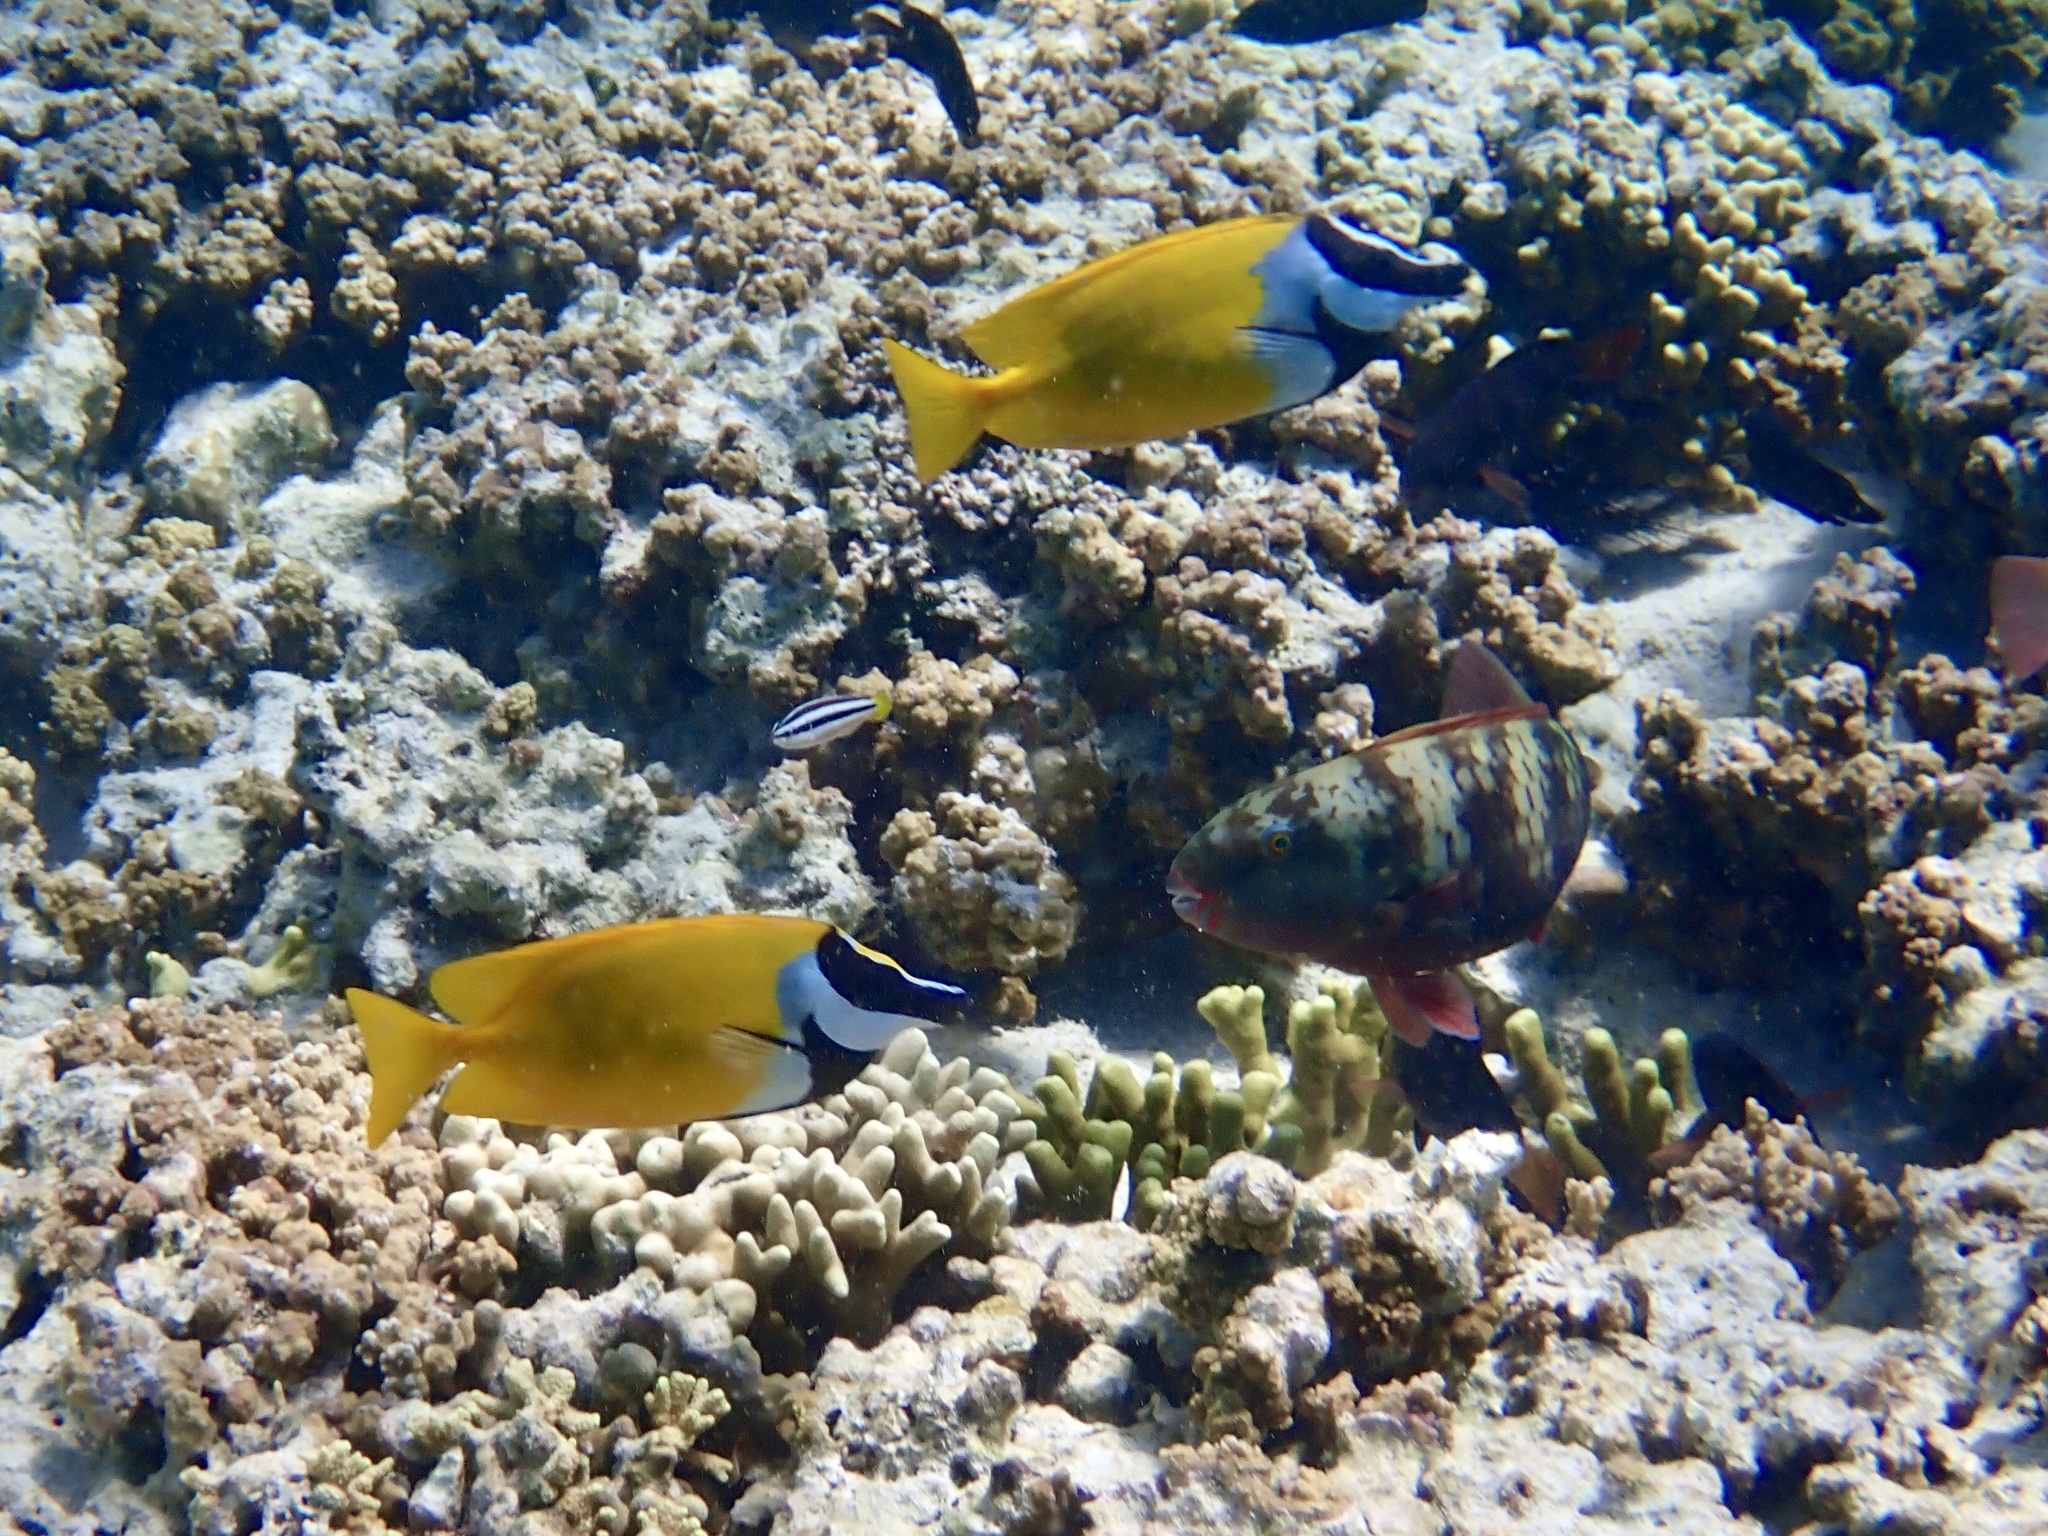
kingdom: Animalia
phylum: Chordata
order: Perciformes
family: Siganidae
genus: Siganus
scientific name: Siganus vulpinus
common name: Foxface
